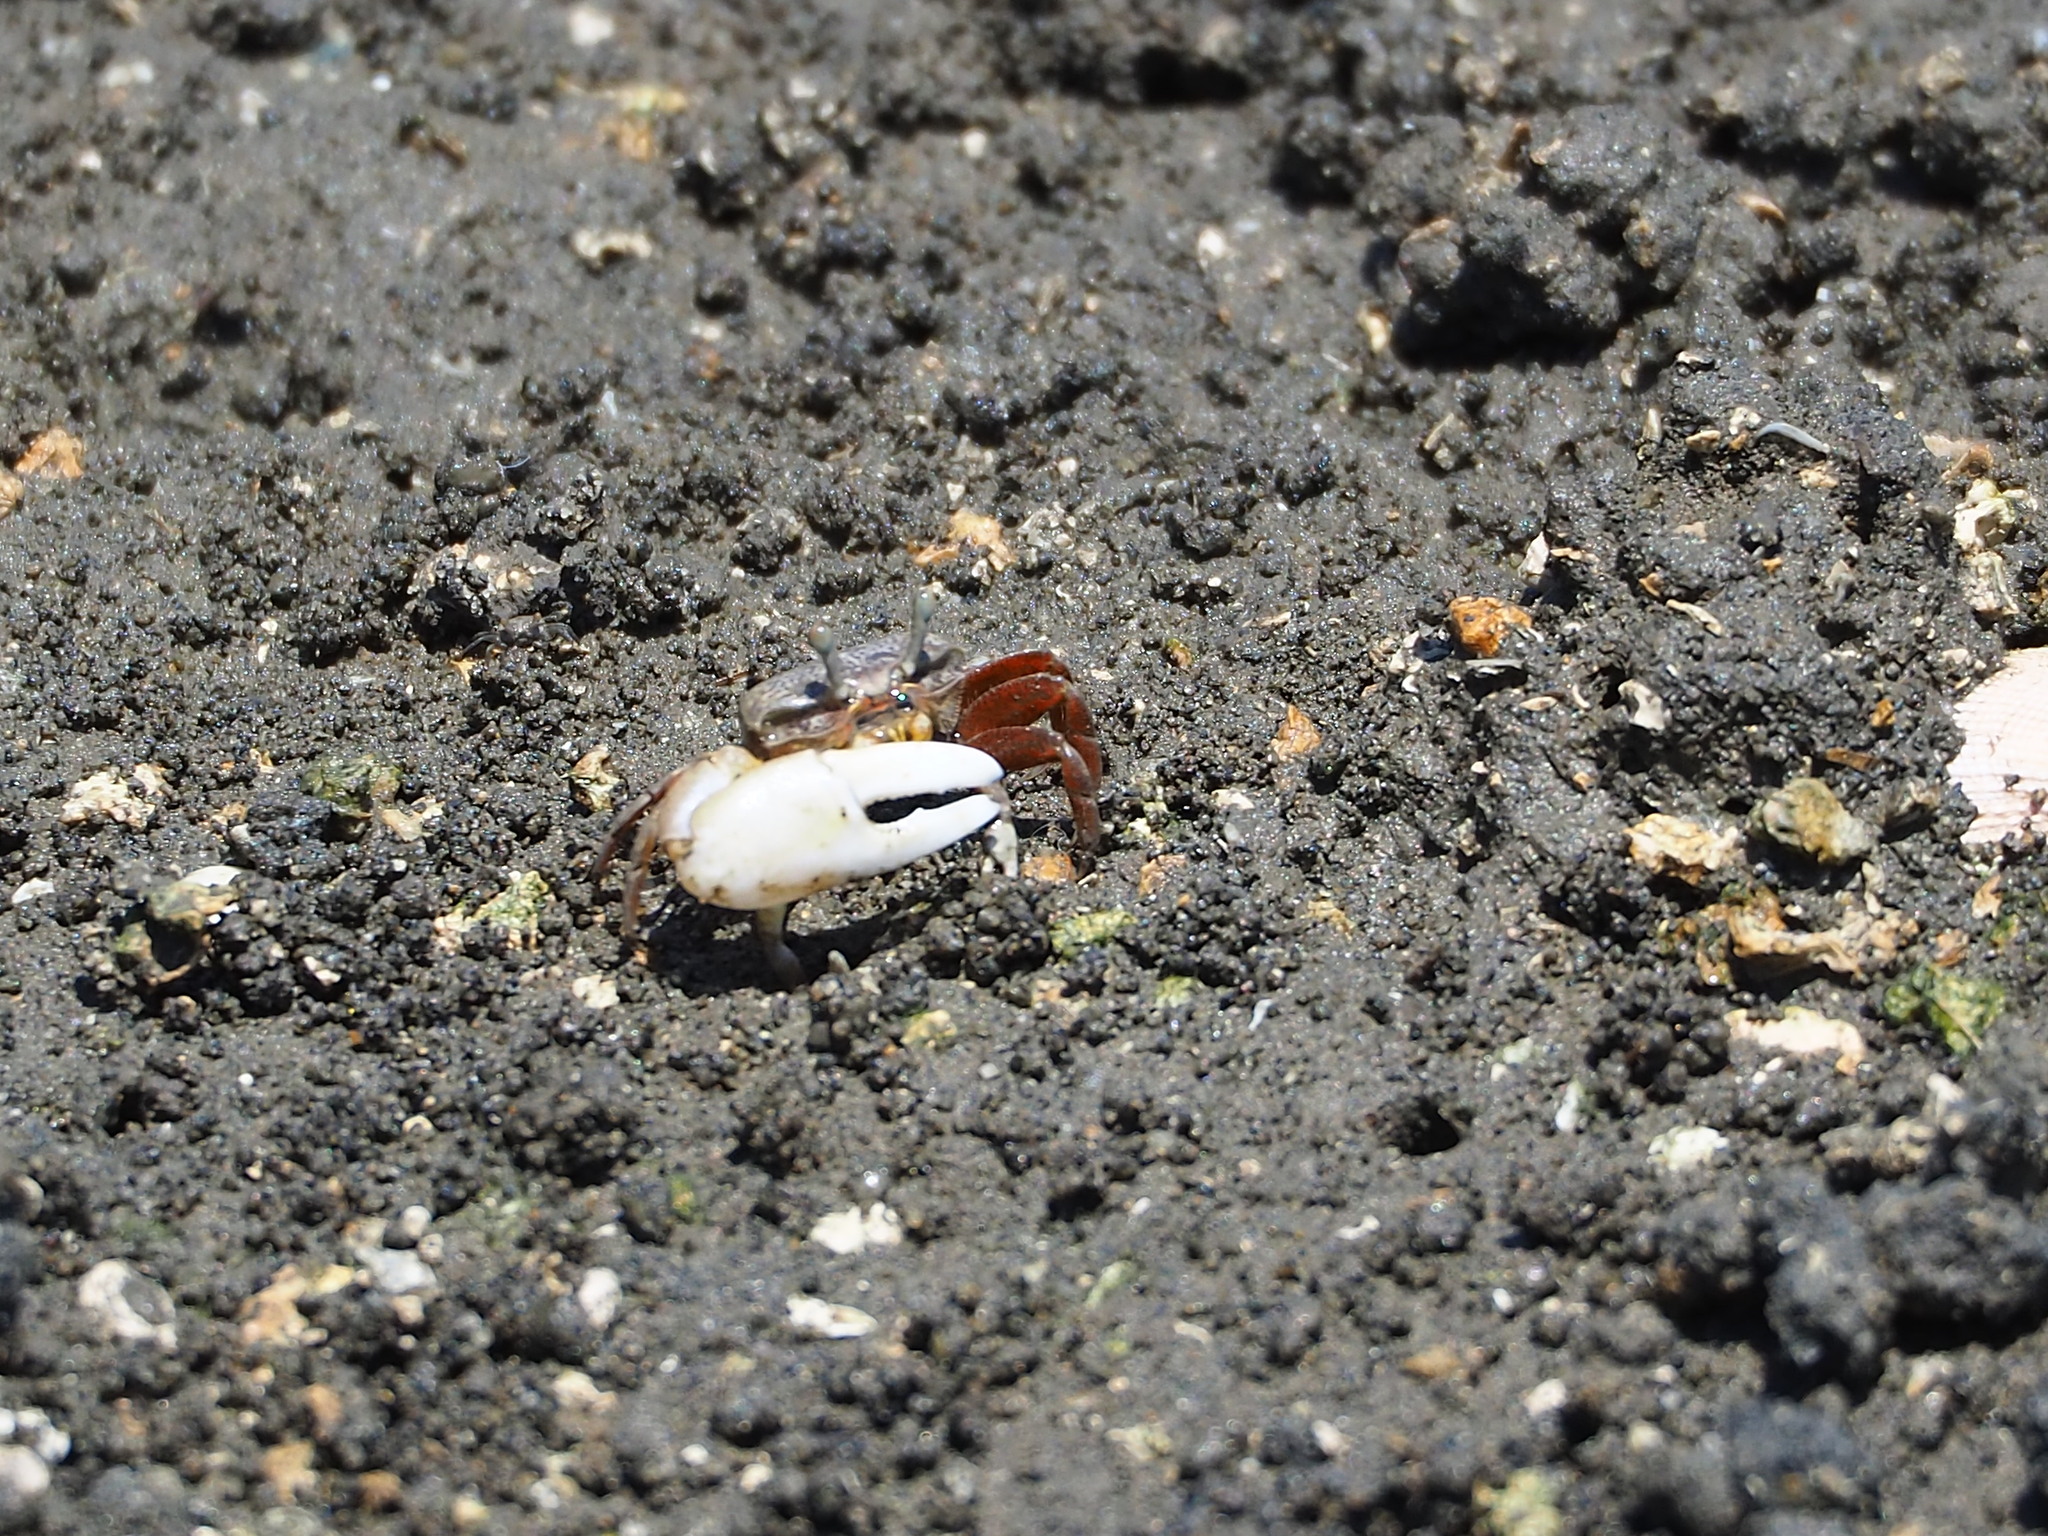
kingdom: Animalia
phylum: Arthropoda
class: Malacostraca
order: Decapoda
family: Ocypodidae
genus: Austruca
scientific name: Austruca lactea
